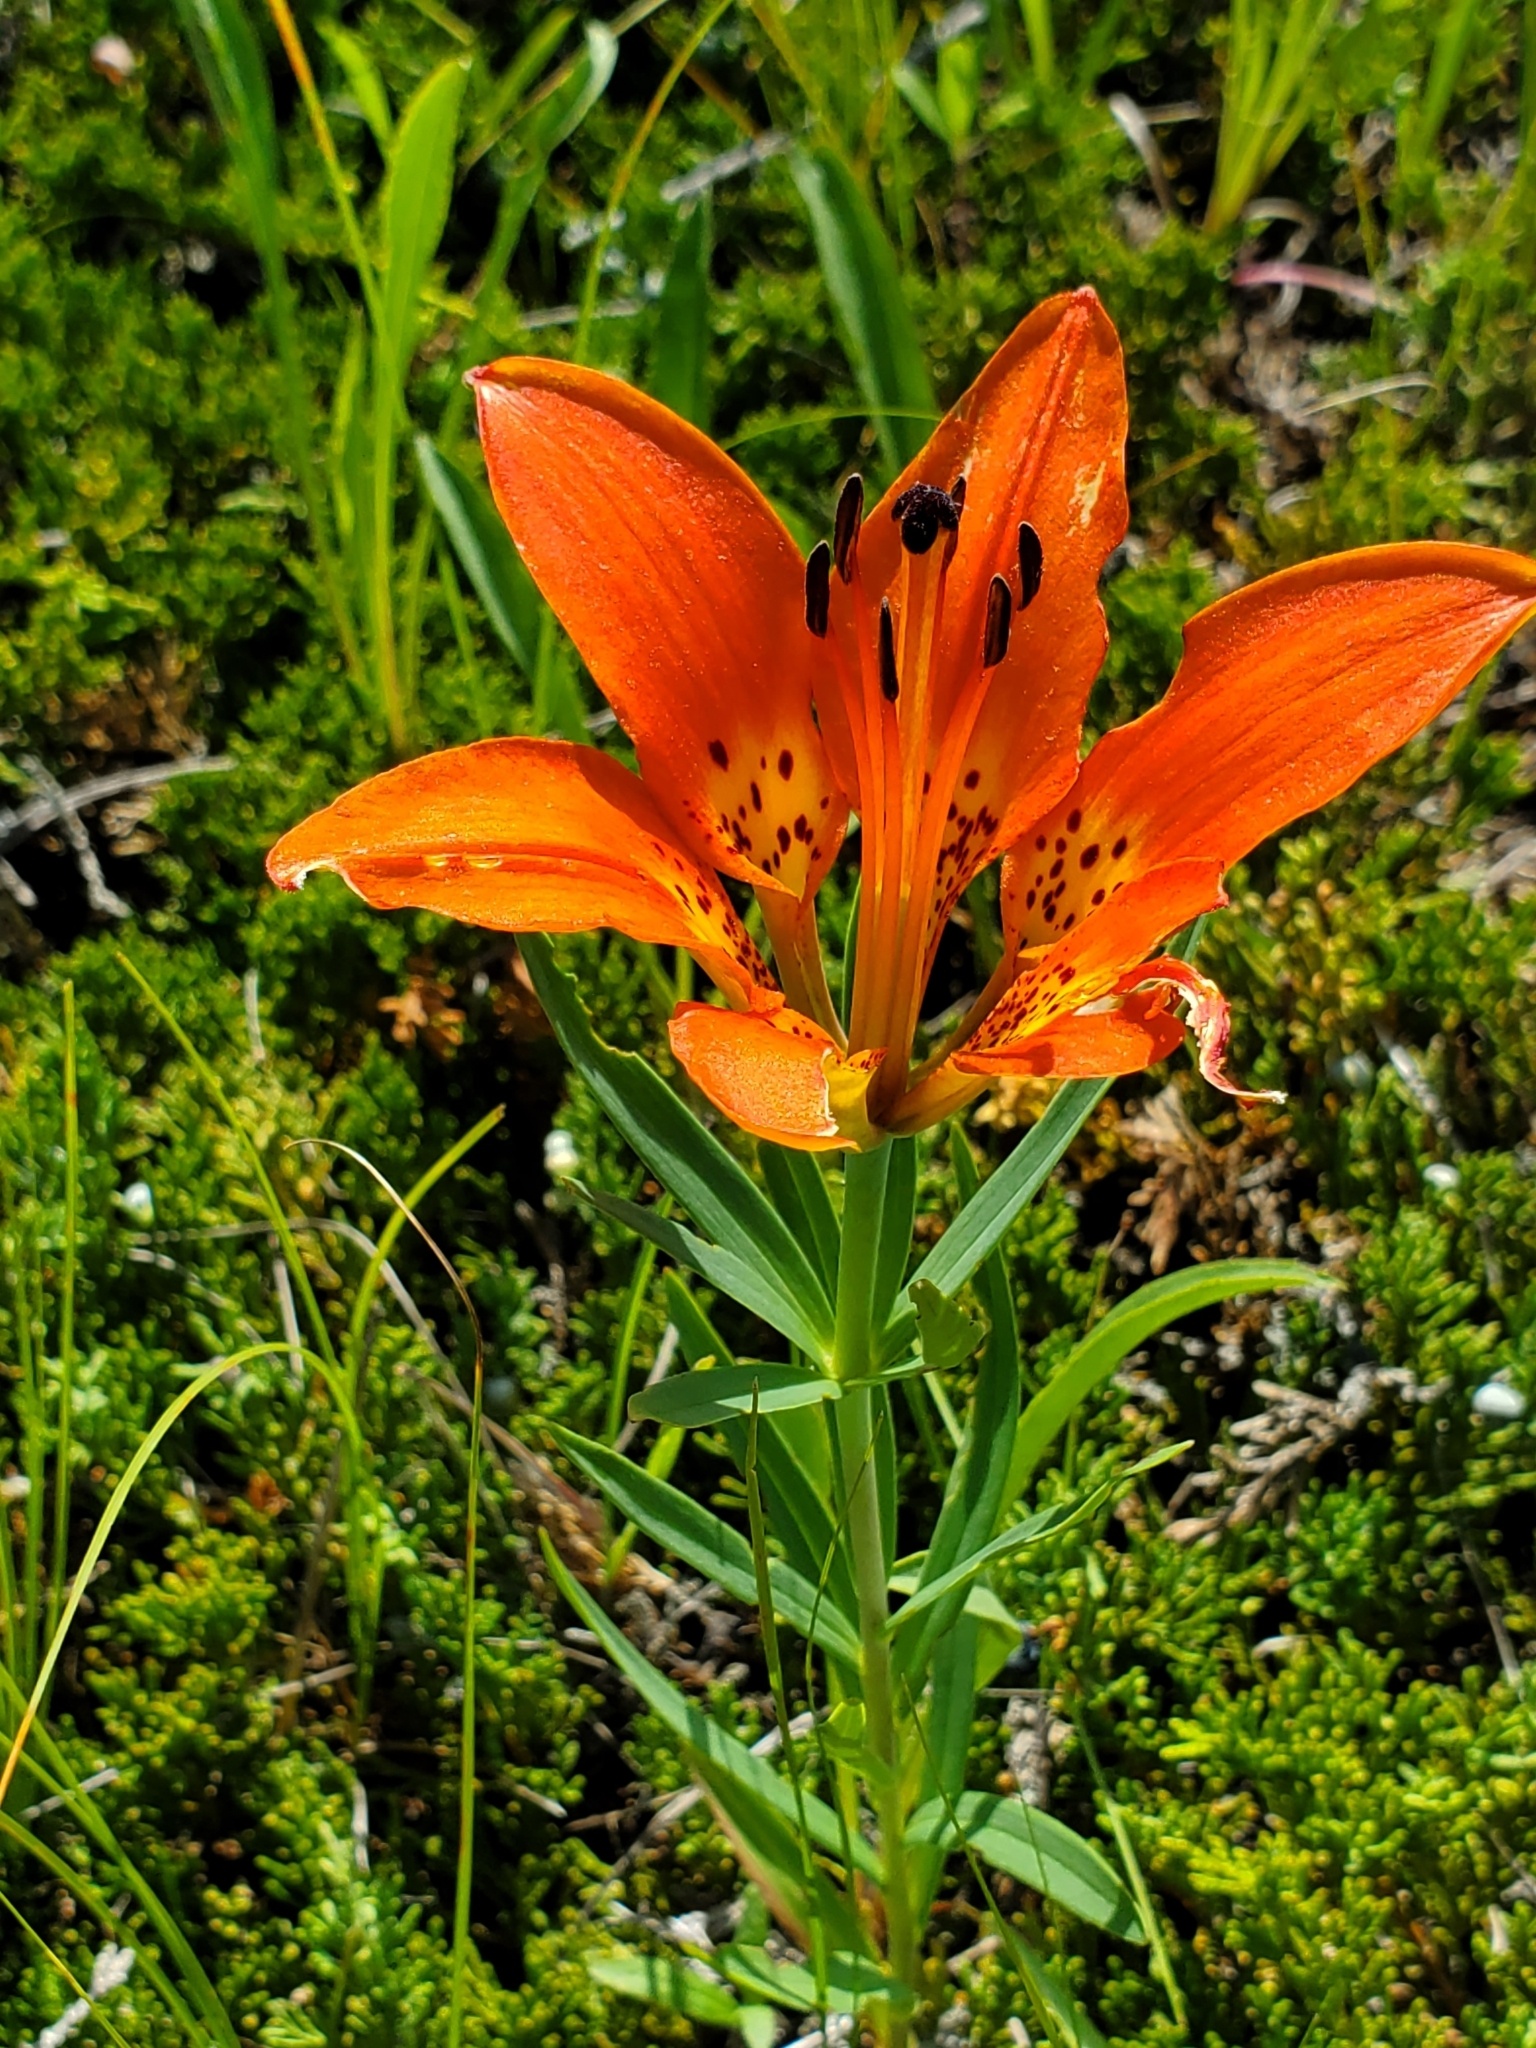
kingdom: Plantae
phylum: Tracheophyta
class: Liliopsida
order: Liliales
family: Liliaceae
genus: Lilium
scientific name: Lilium philadelphicum
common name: Red lily
